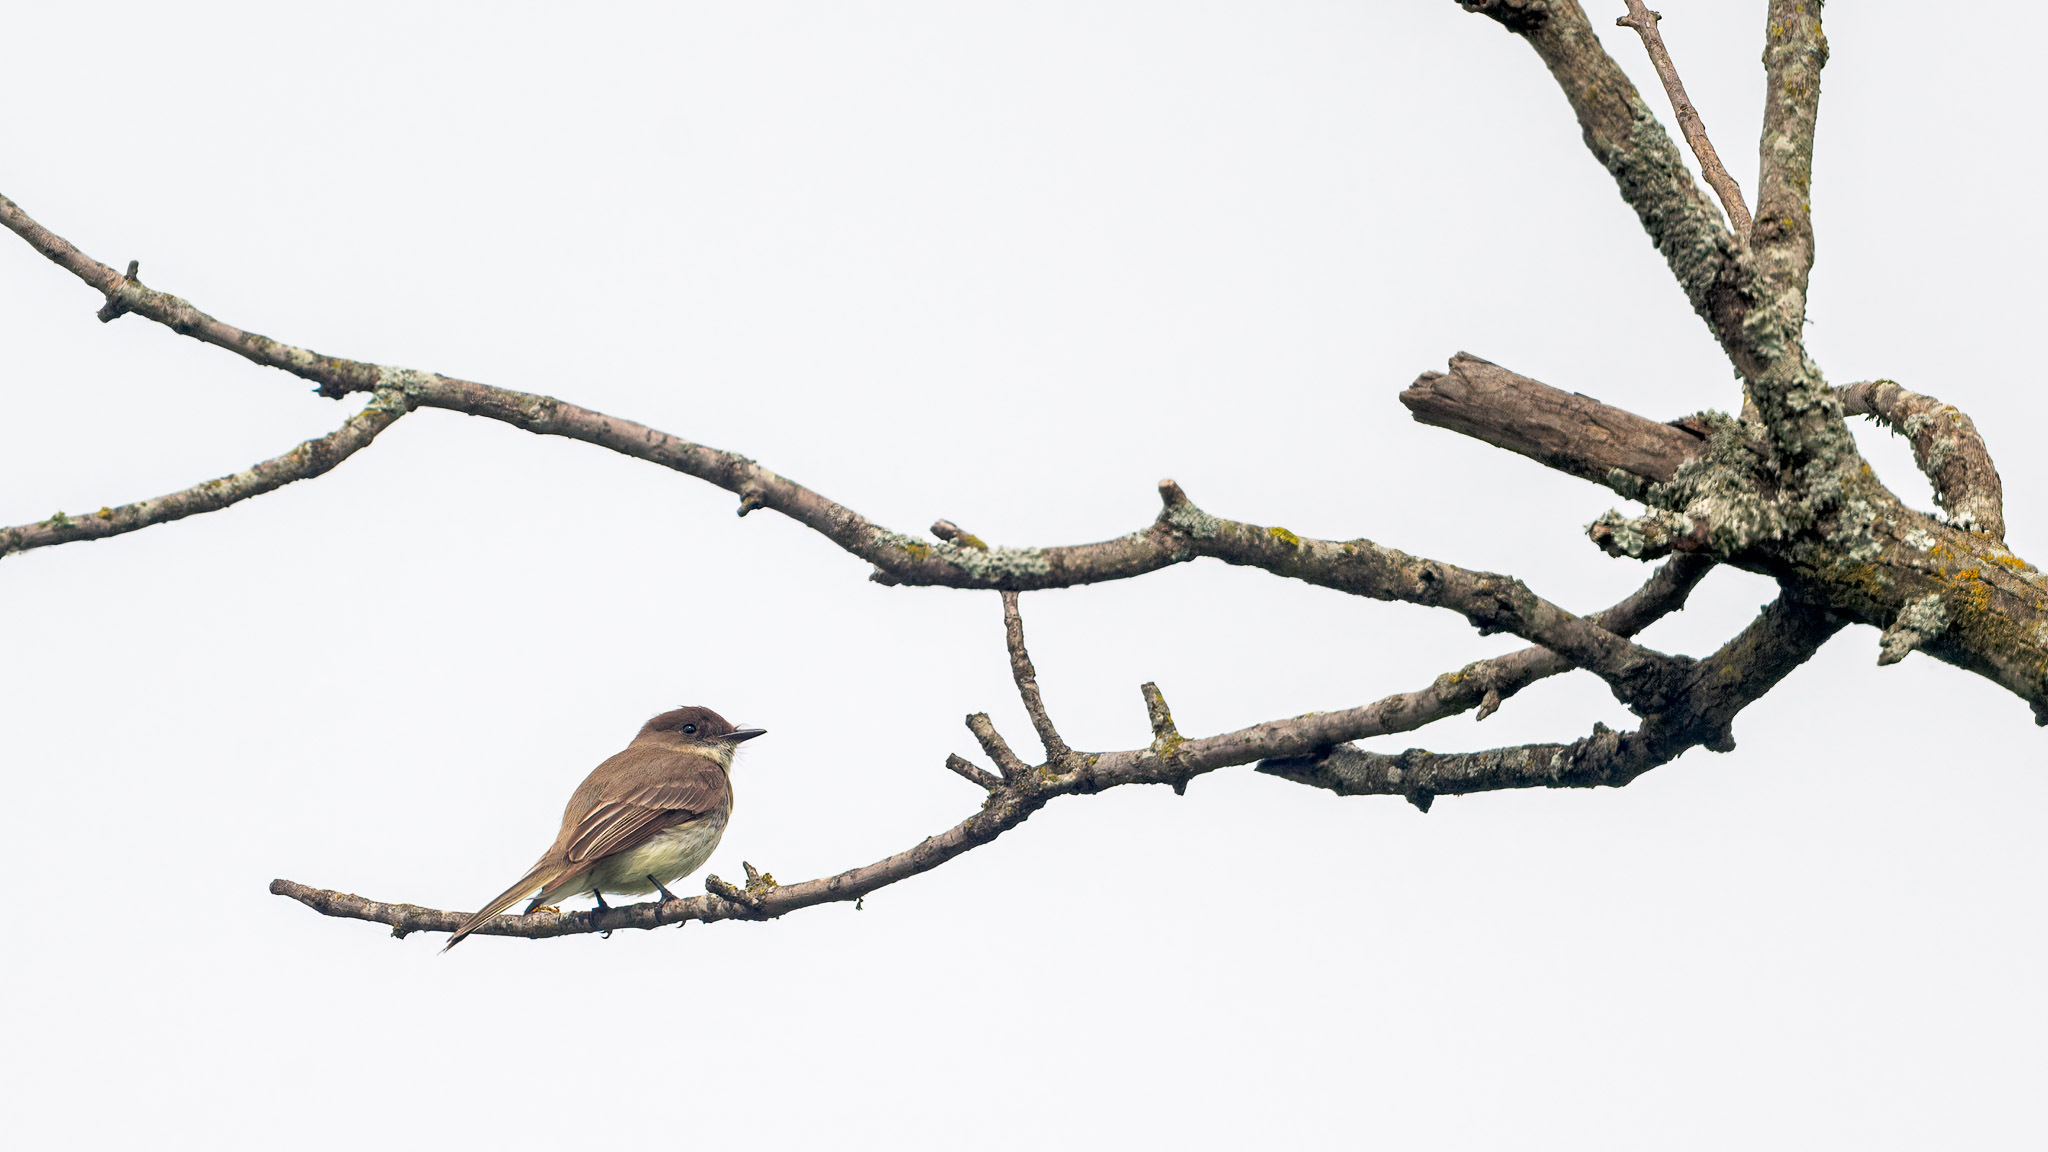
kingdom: Animalia
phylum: Chordata
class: Aves
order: Passeriformes
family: Tyrannidae
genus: Sayornis
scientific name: Sayornis phoebe
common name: Eastern phoebe
